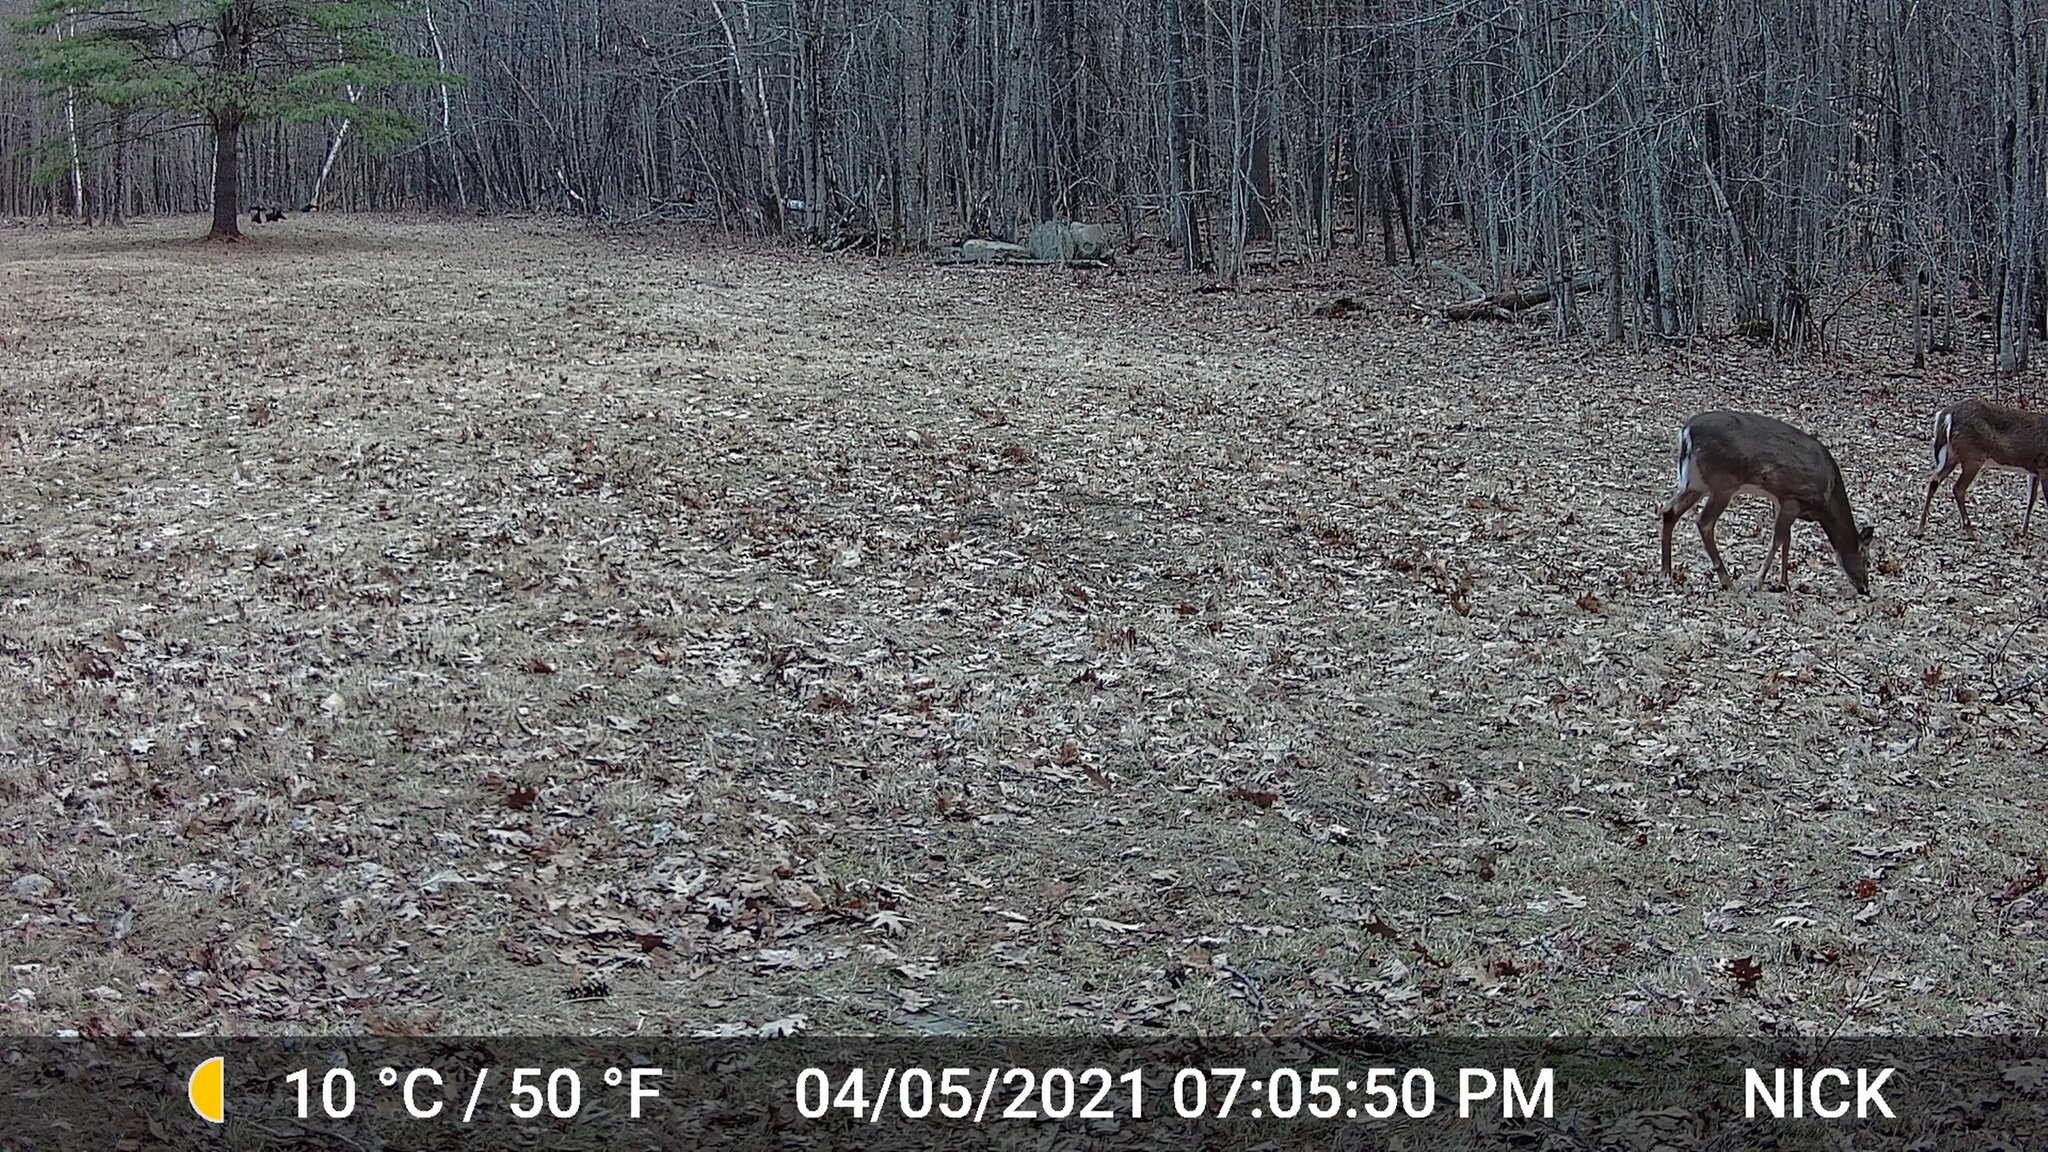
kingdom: Animalia
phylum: Chordata
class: Mammalia
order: Artiodactyla
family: Cervidae
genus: Odocoileus
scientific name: Odocoileus virginianus
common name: White-tailed deer
